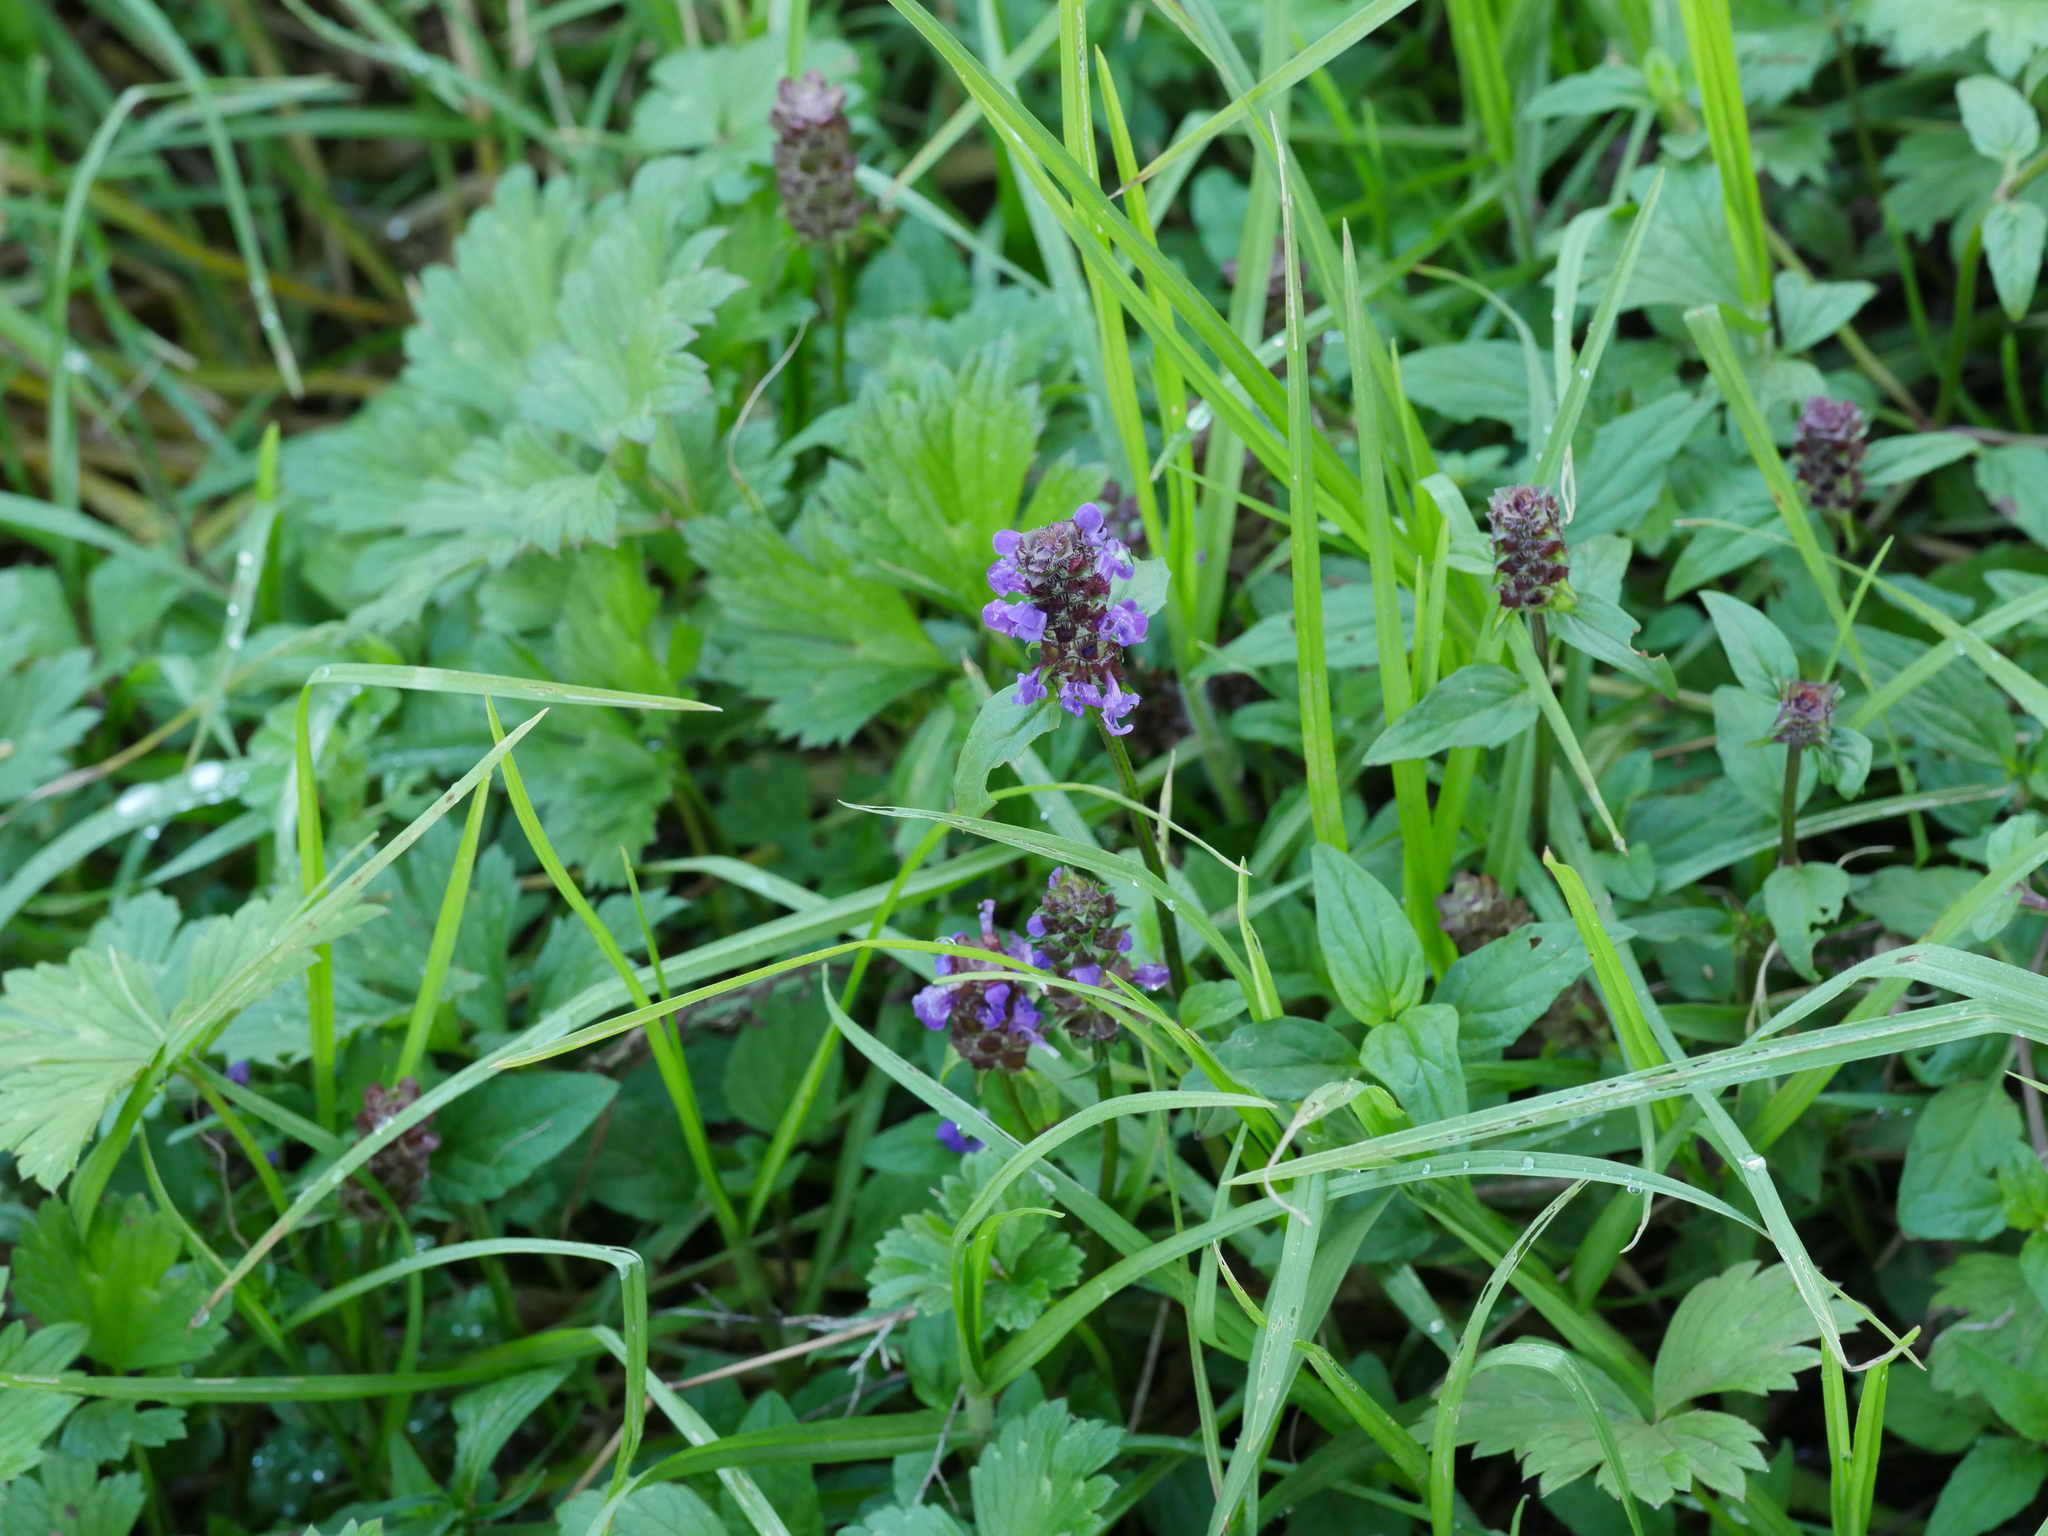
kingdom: Plantae
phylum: Tracheophyta
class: Magnoliopsida
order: Lamiales
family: Lamiaceae
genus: Prunella
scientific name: Prunella vulgaris
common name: Heal-all
